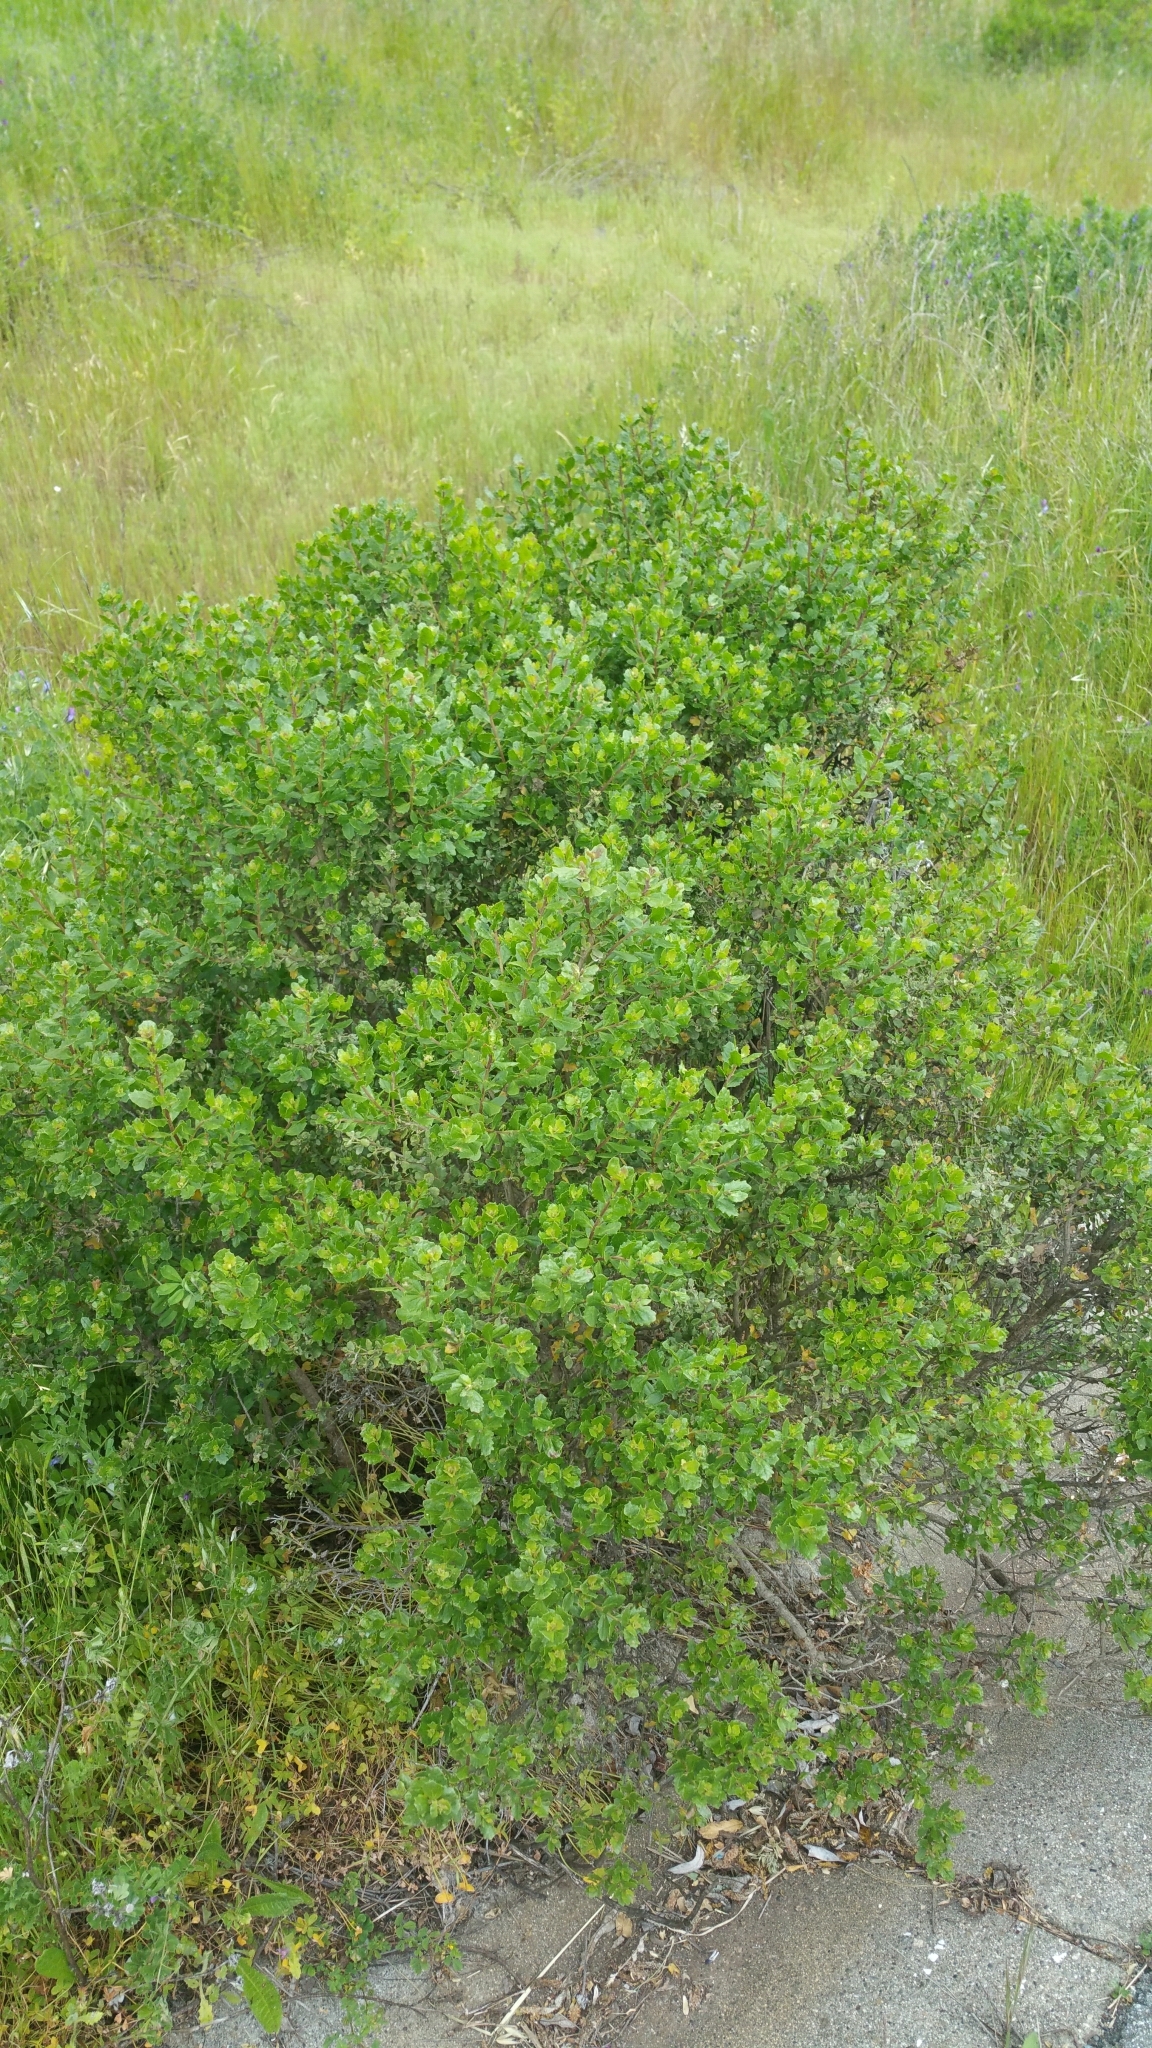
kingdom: Plantae
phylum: Tracheophyta
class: Magnoliopsida
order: Asterales
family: Asteraceae
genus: Baccharis
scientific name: Baccharis pilularis
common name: Coyotebrush
